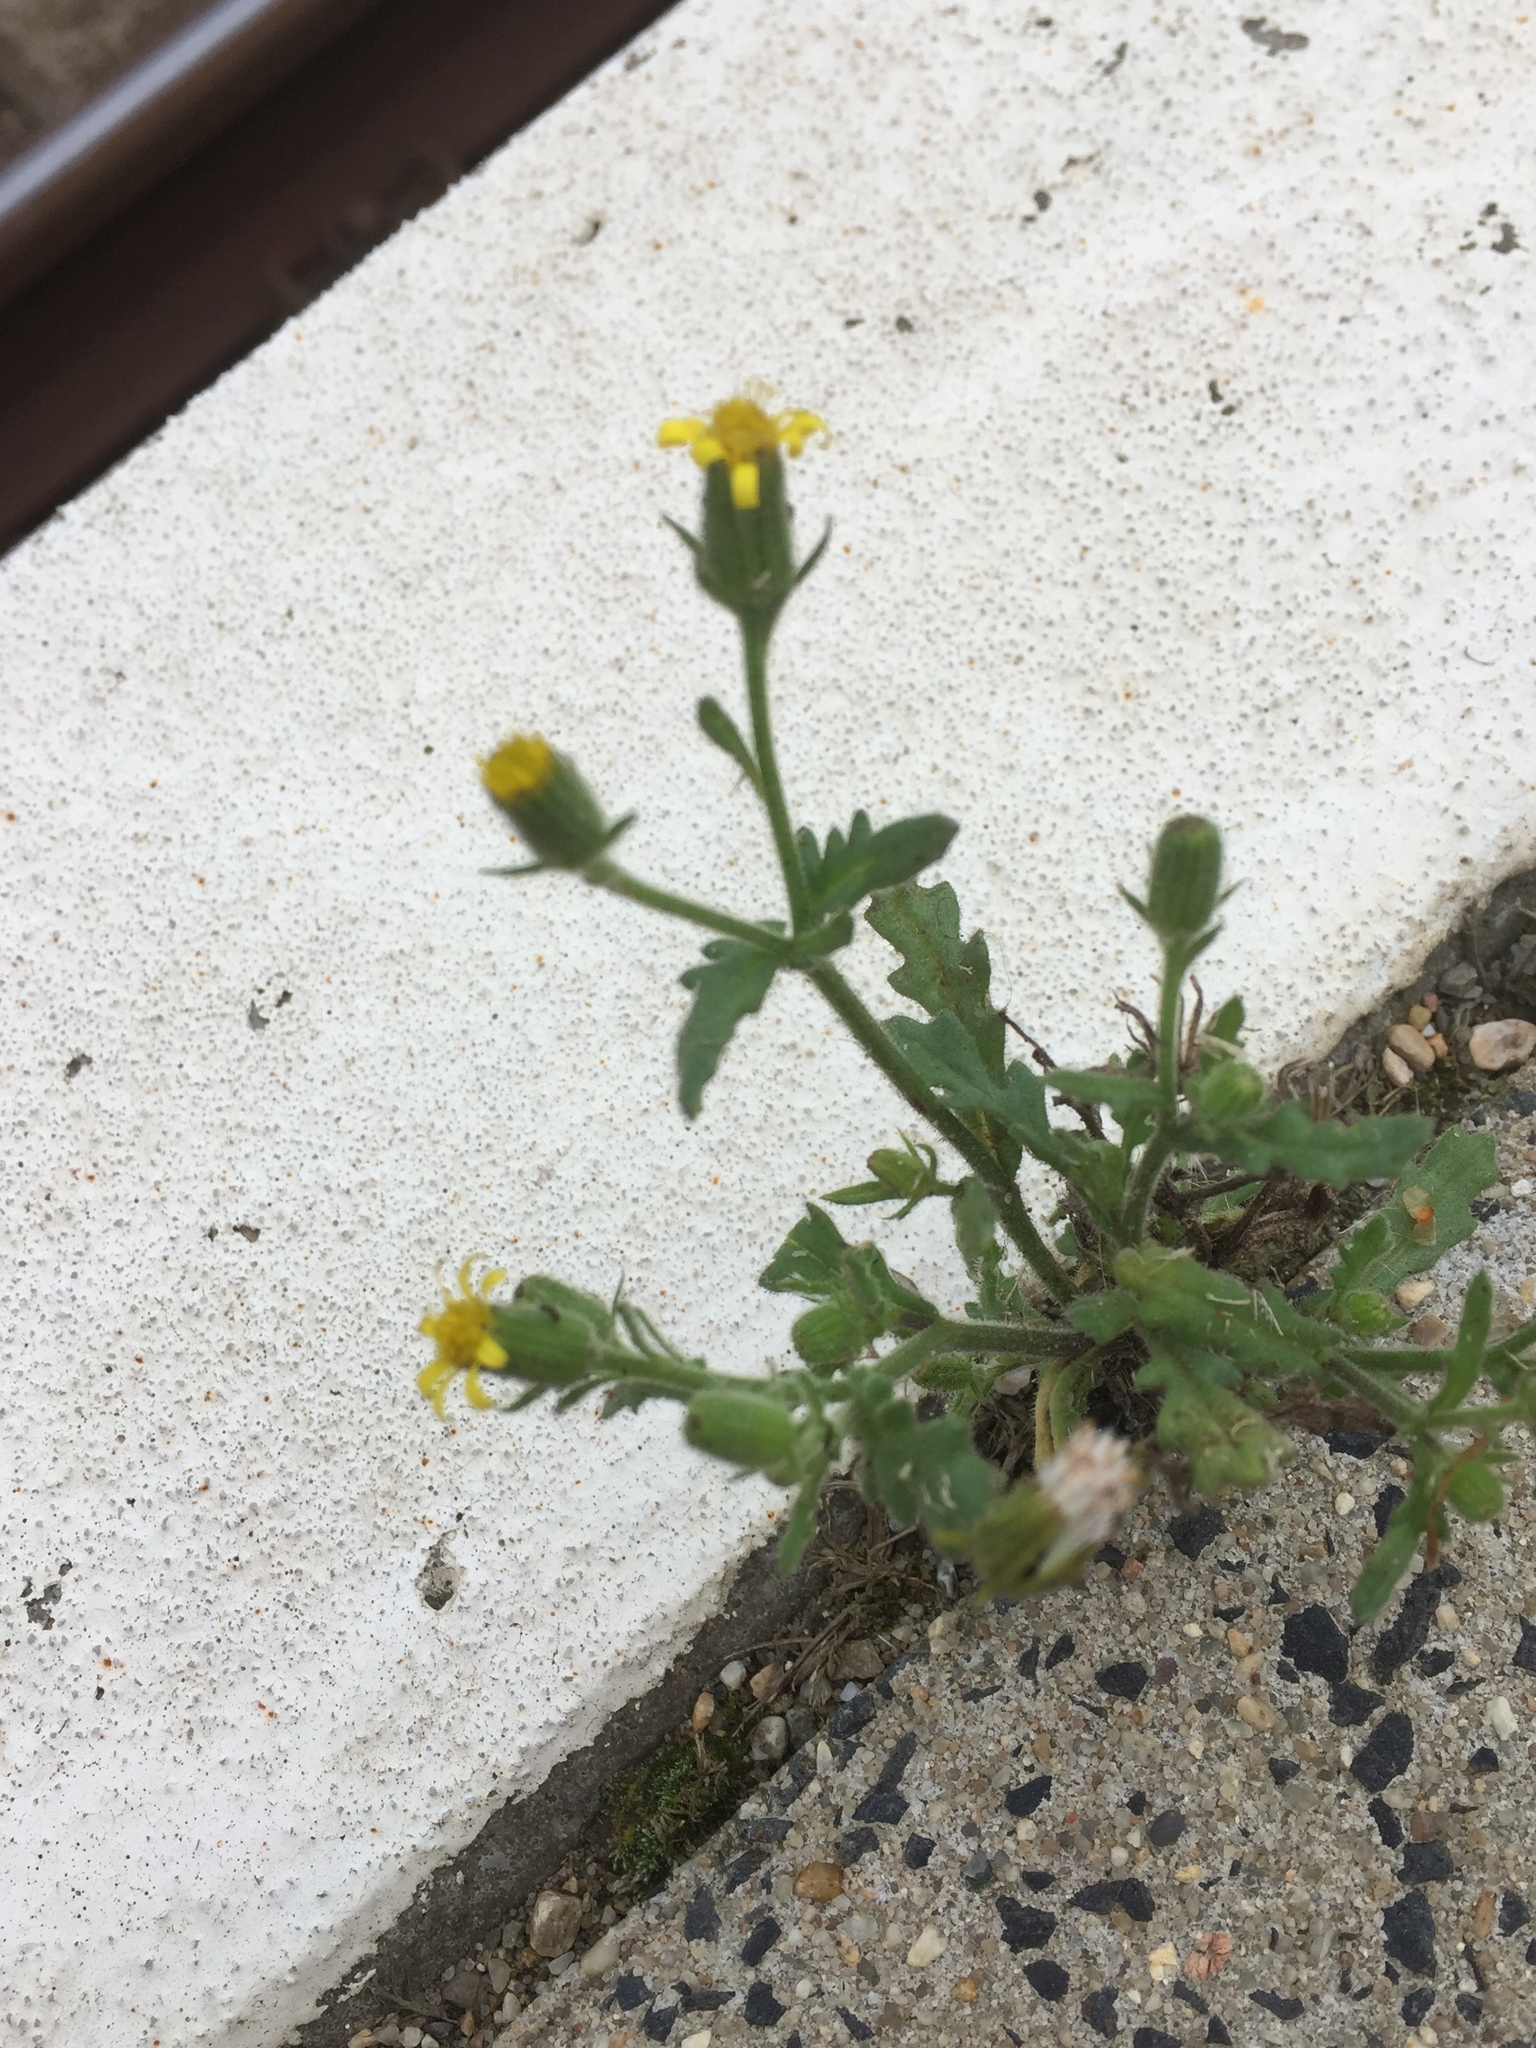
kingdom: Plantae
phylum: Tracheophyta
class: Magnoliopsida
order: Asterales
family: Asteraceae
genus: Senecio
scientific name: Senecio viscosus
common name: Sticky groundsel
